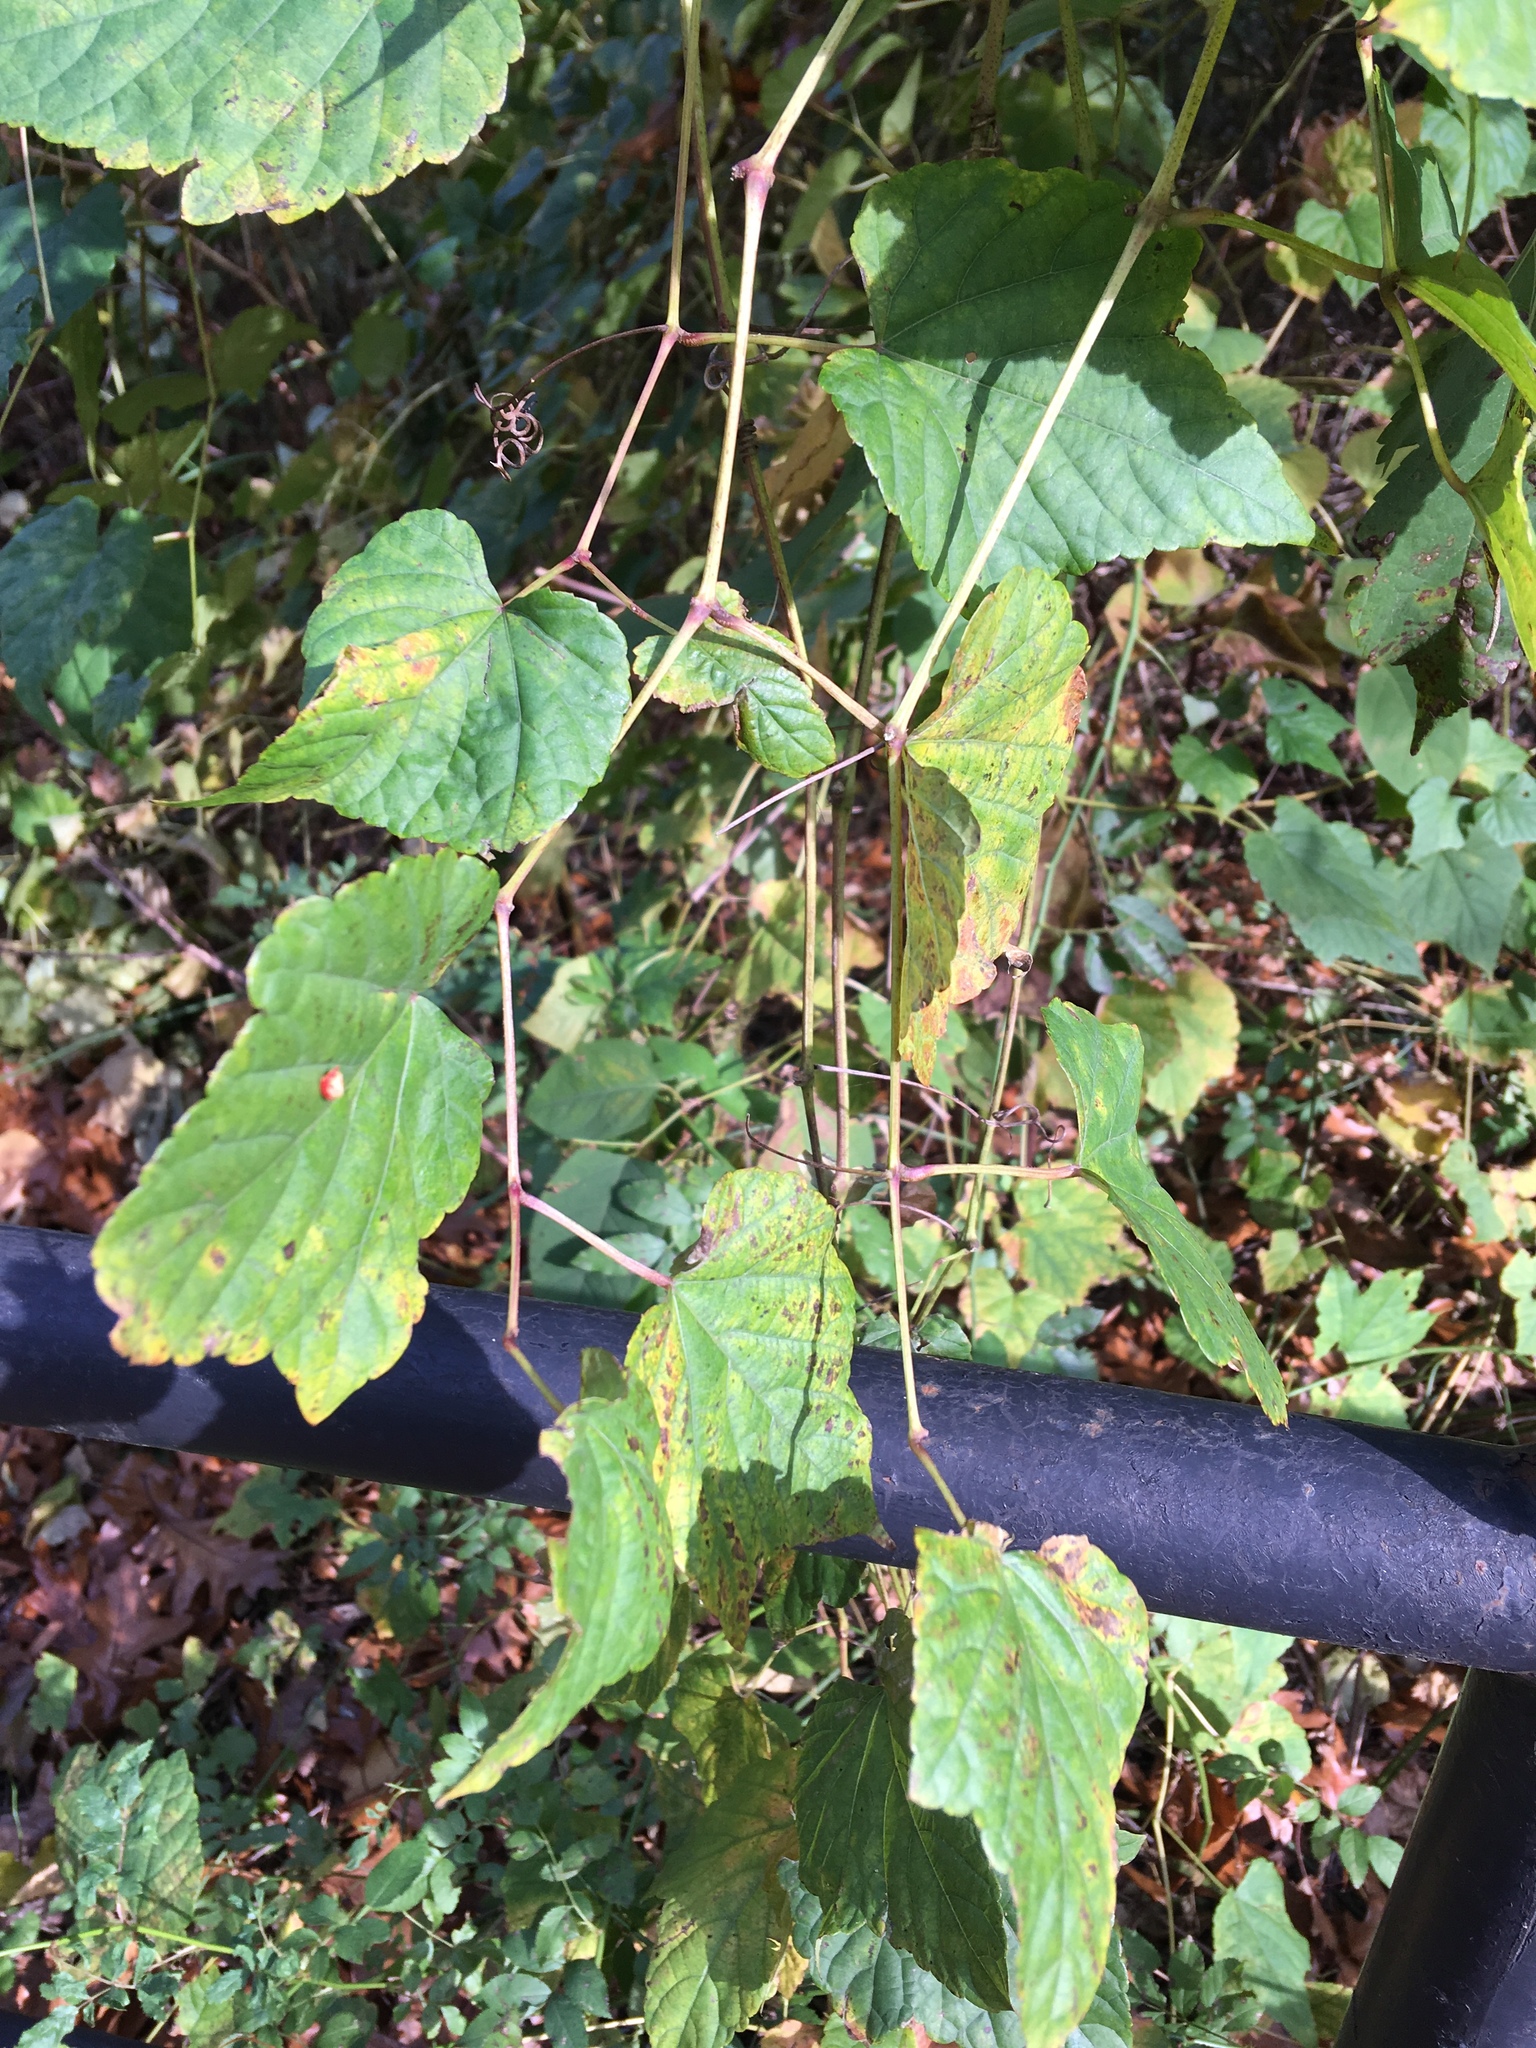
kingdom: Plantae
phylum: Tracheophyta
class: Magnoliopsida
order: Vitales
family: Vitaceae
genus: Ampelopsis
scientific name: Ampelopsis glandulosa
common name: Amur peppervine
